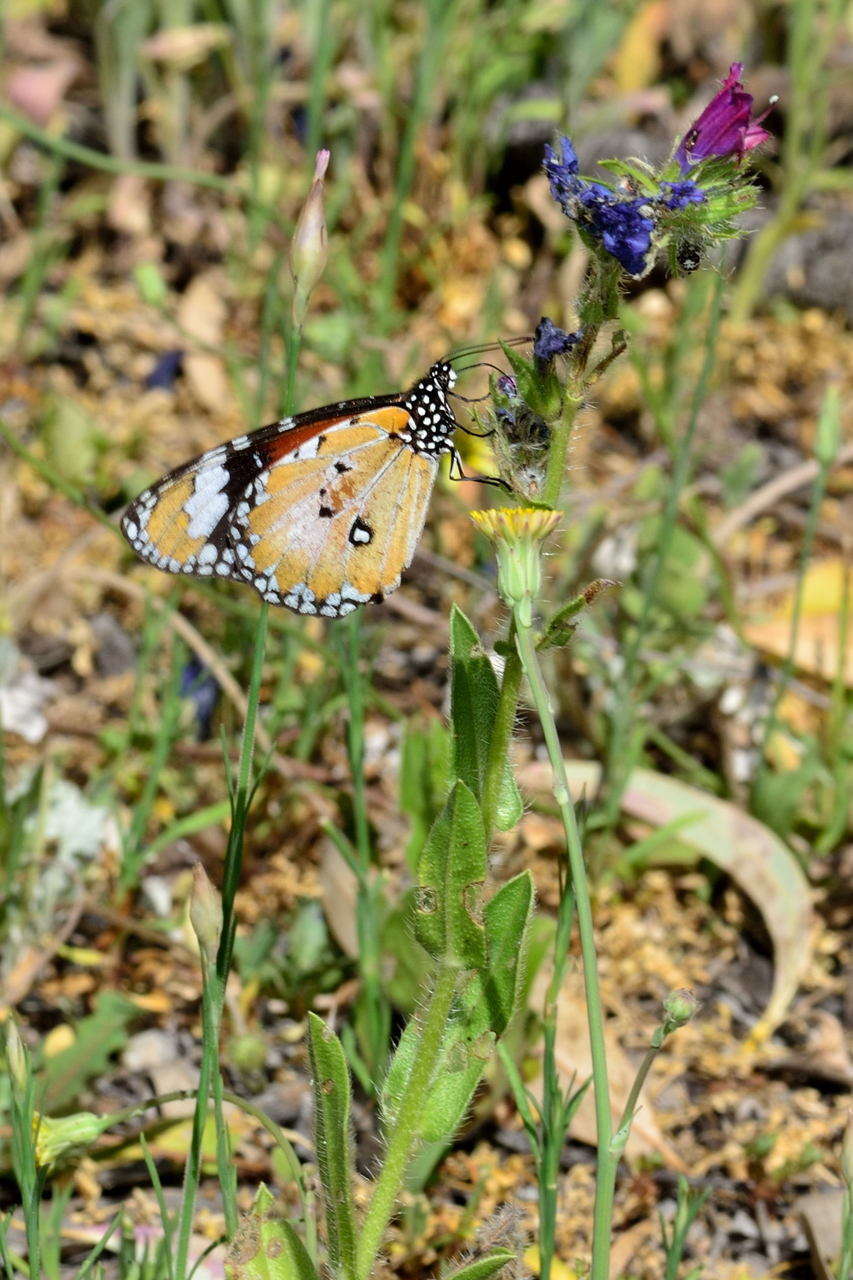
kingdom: Animalia
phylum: Arthropoda
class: Insecta
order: Lepidoptera
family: Nymphalidae
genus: Danaus
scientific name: Danaus chrysippus
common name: Plain tiger
